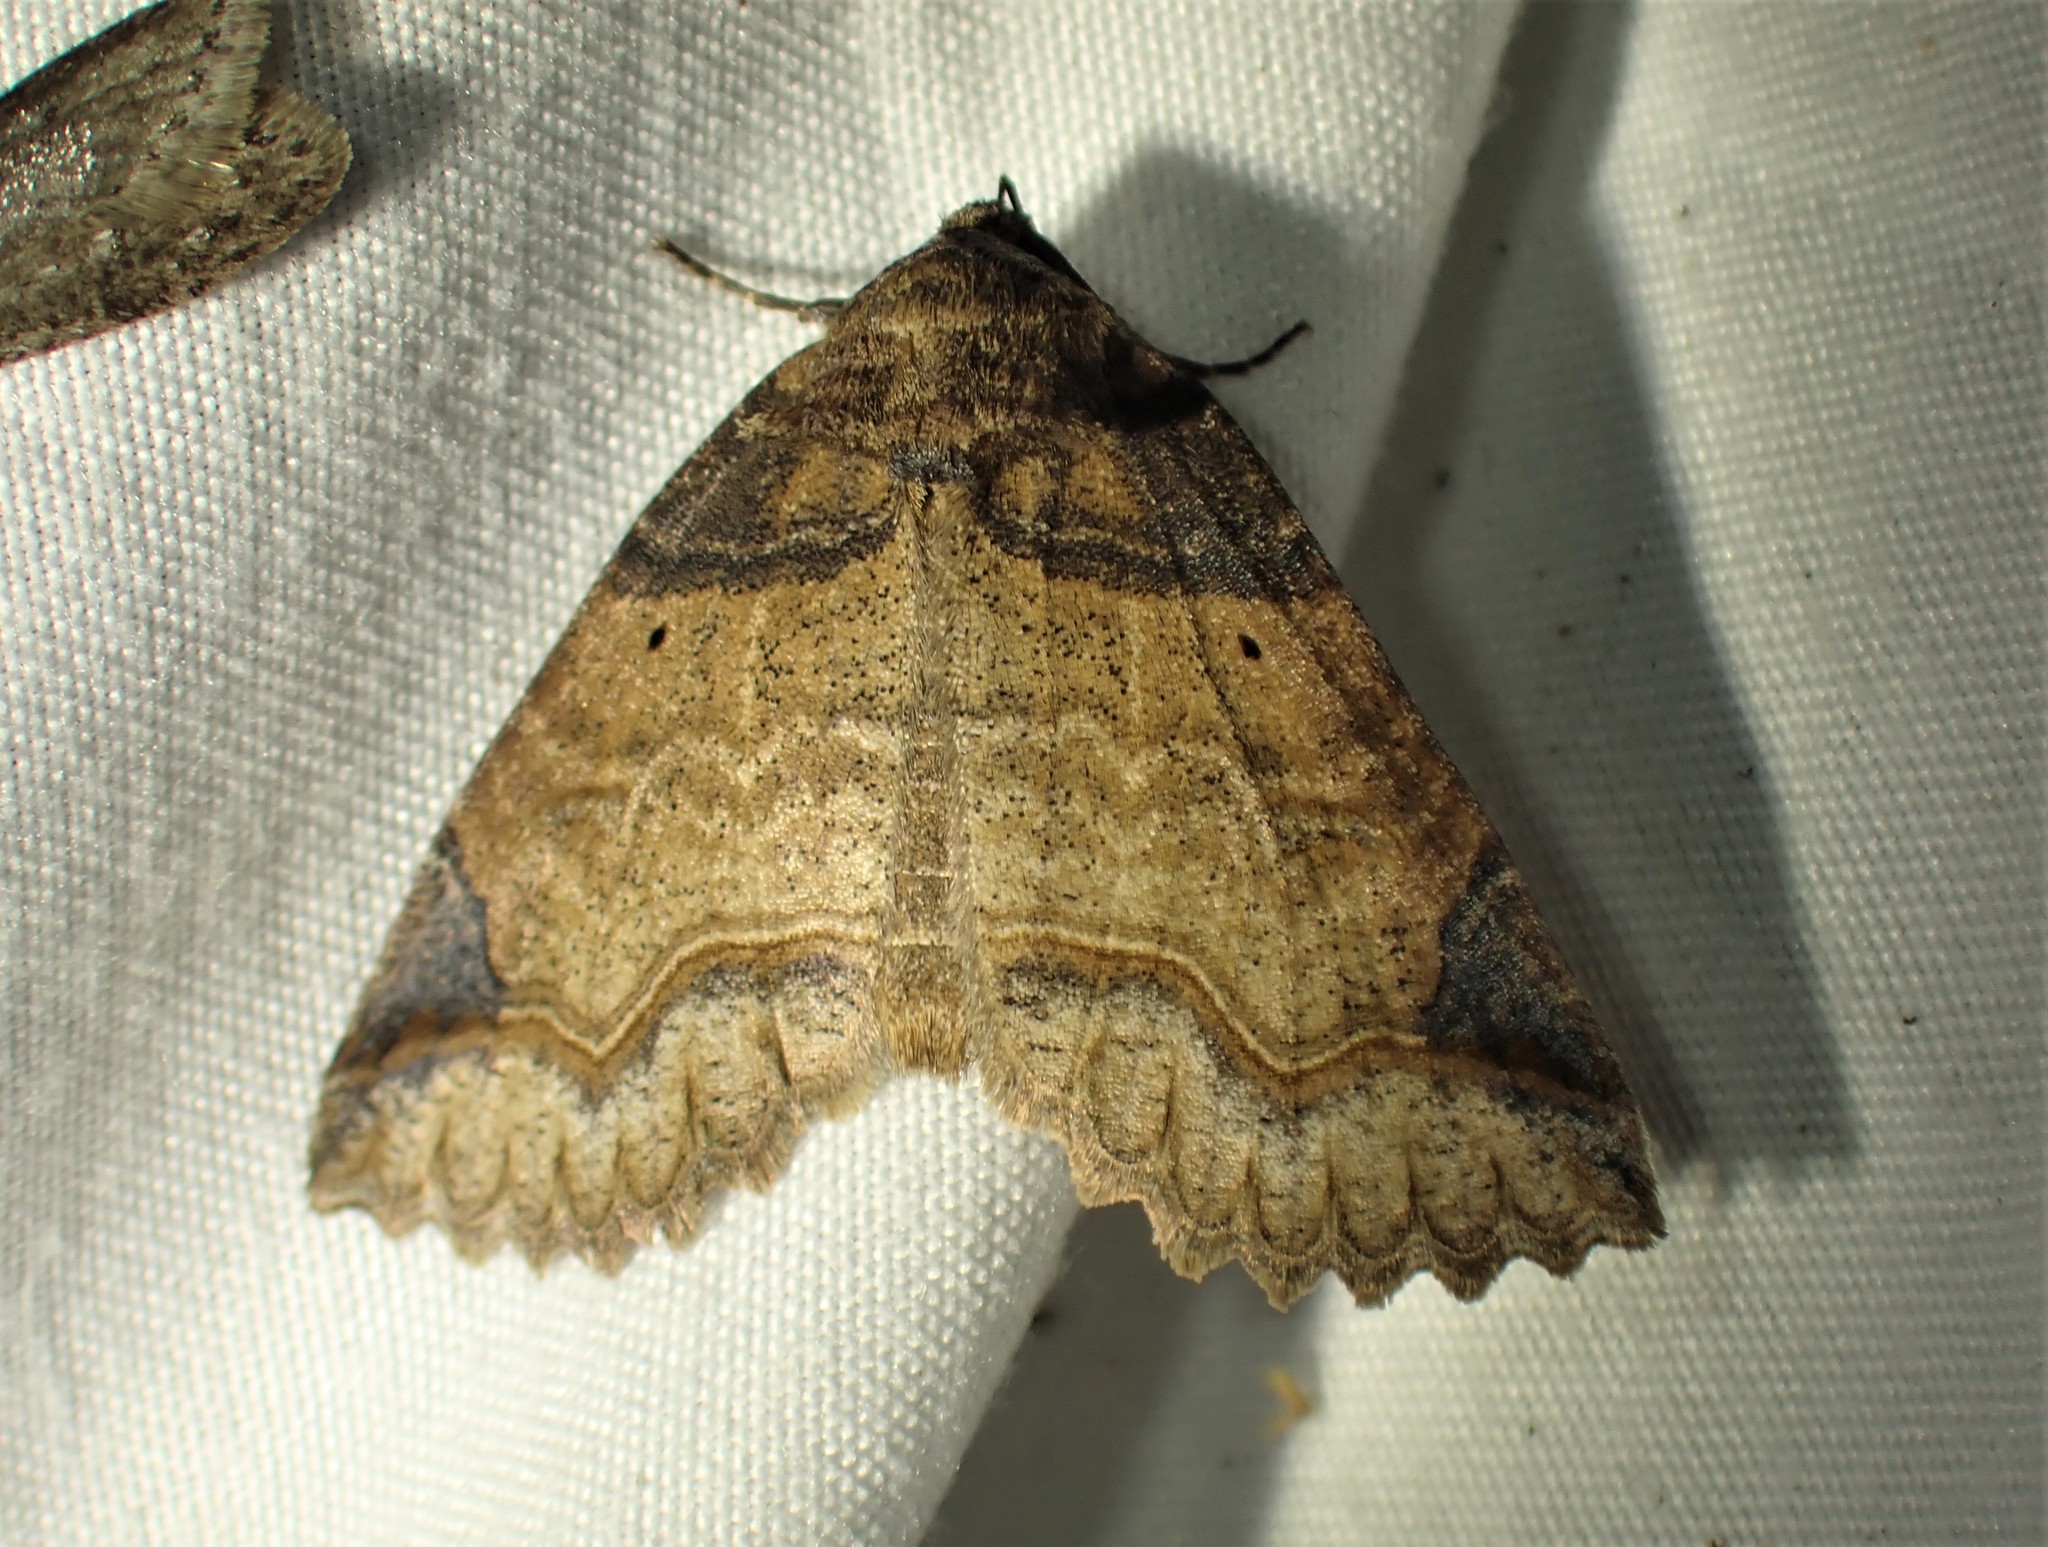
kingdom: Animalia
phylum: Arthropoda
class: Insecta
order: Lepidoptera
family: Erebidae
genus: Zale
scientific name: Zale unilineata
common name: One-lined zale moth
